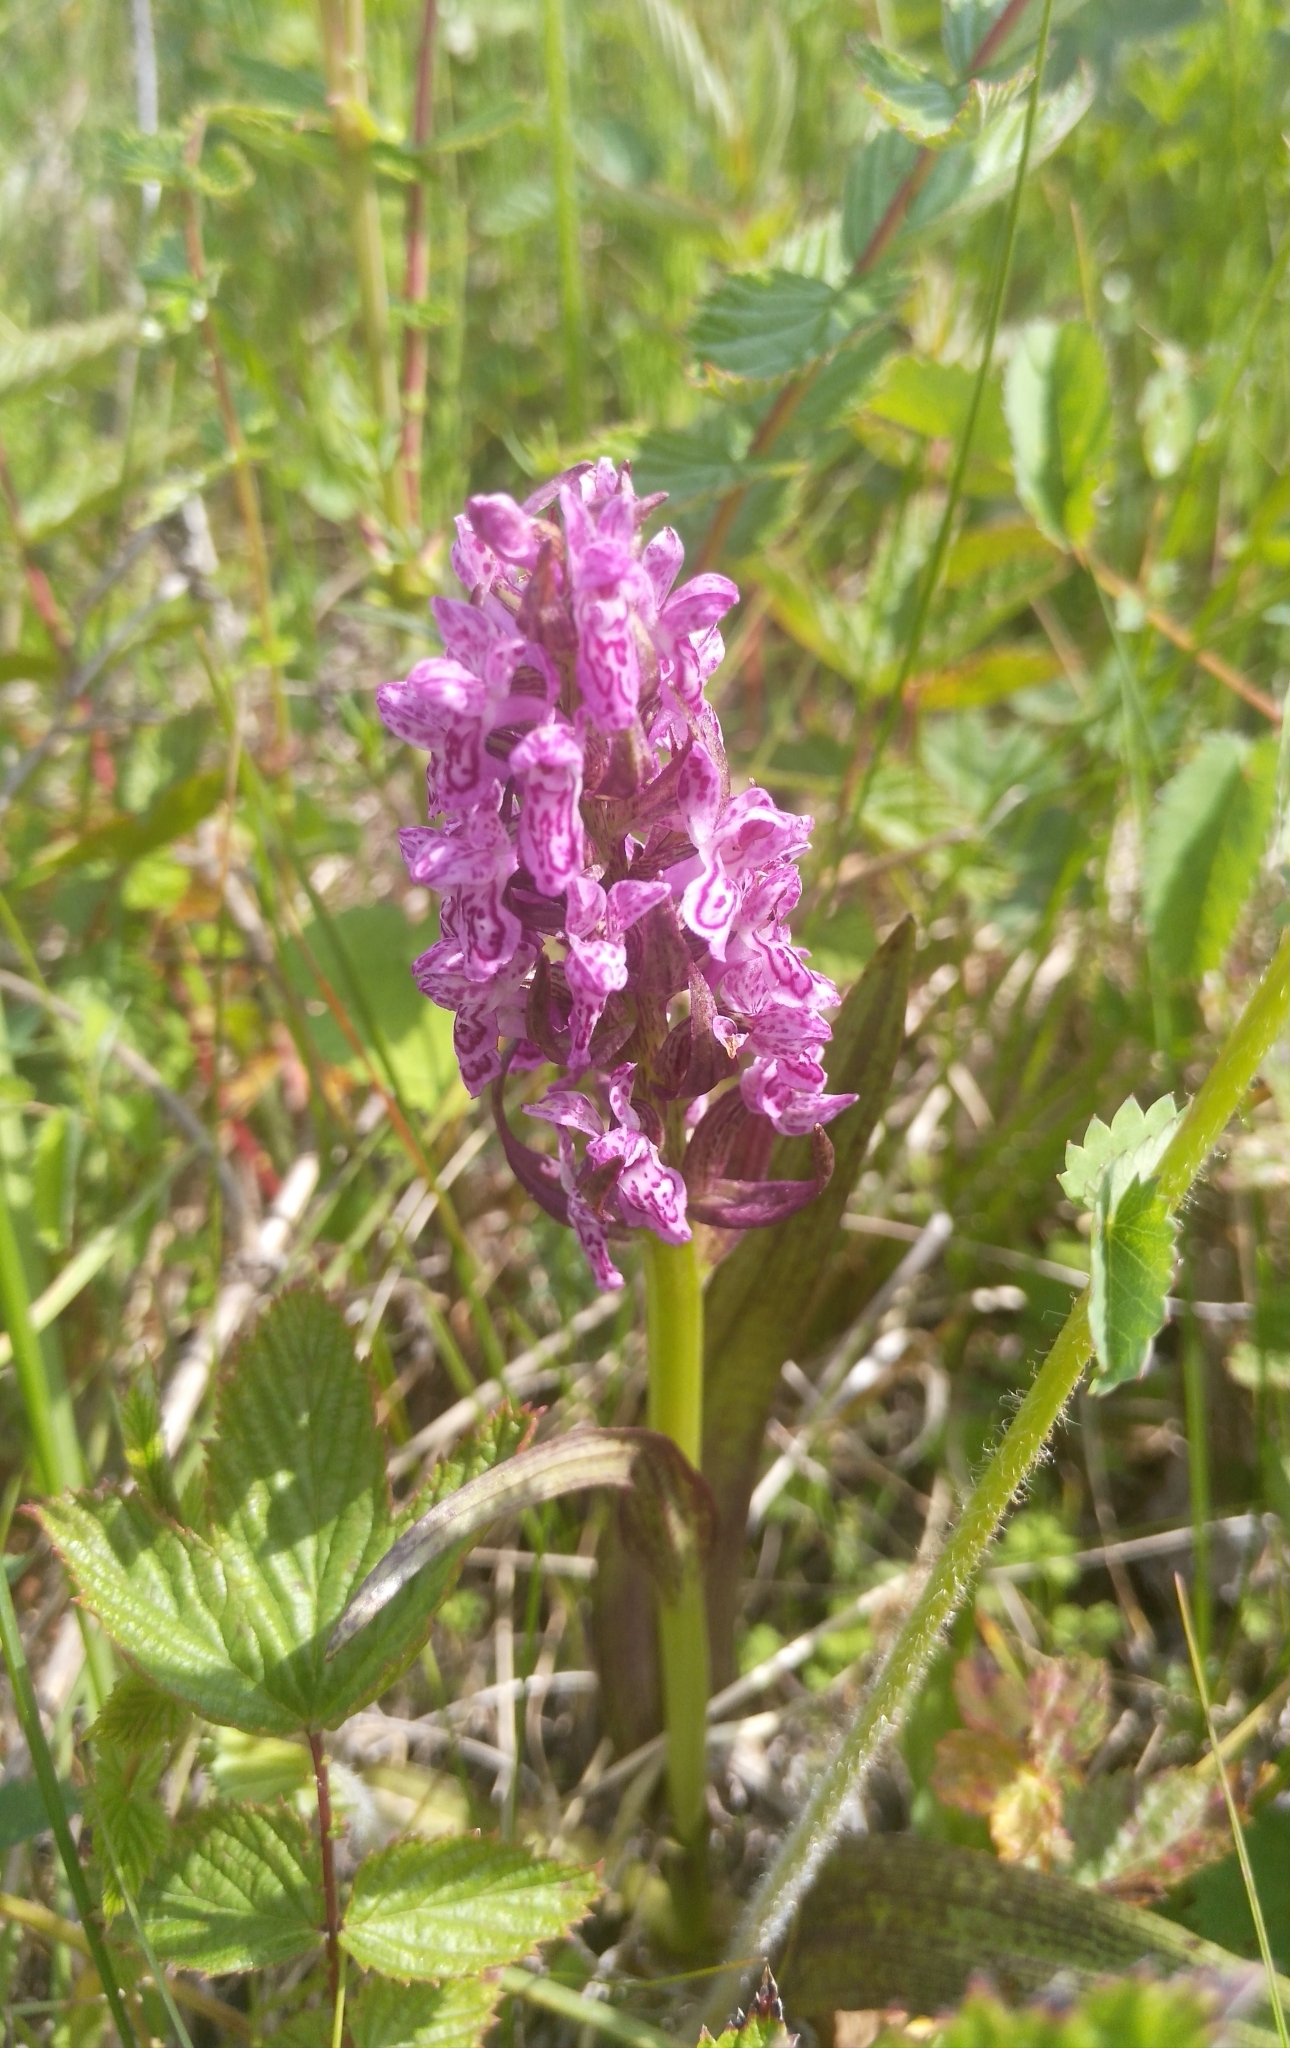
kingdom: Plantae
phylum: Tracheophyta
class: Liliopsida
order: Asparagales
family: Orchidaceae
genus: Dactylorhiza
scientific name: Dactylorhiza incarnata
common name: Early marsh-orchid
